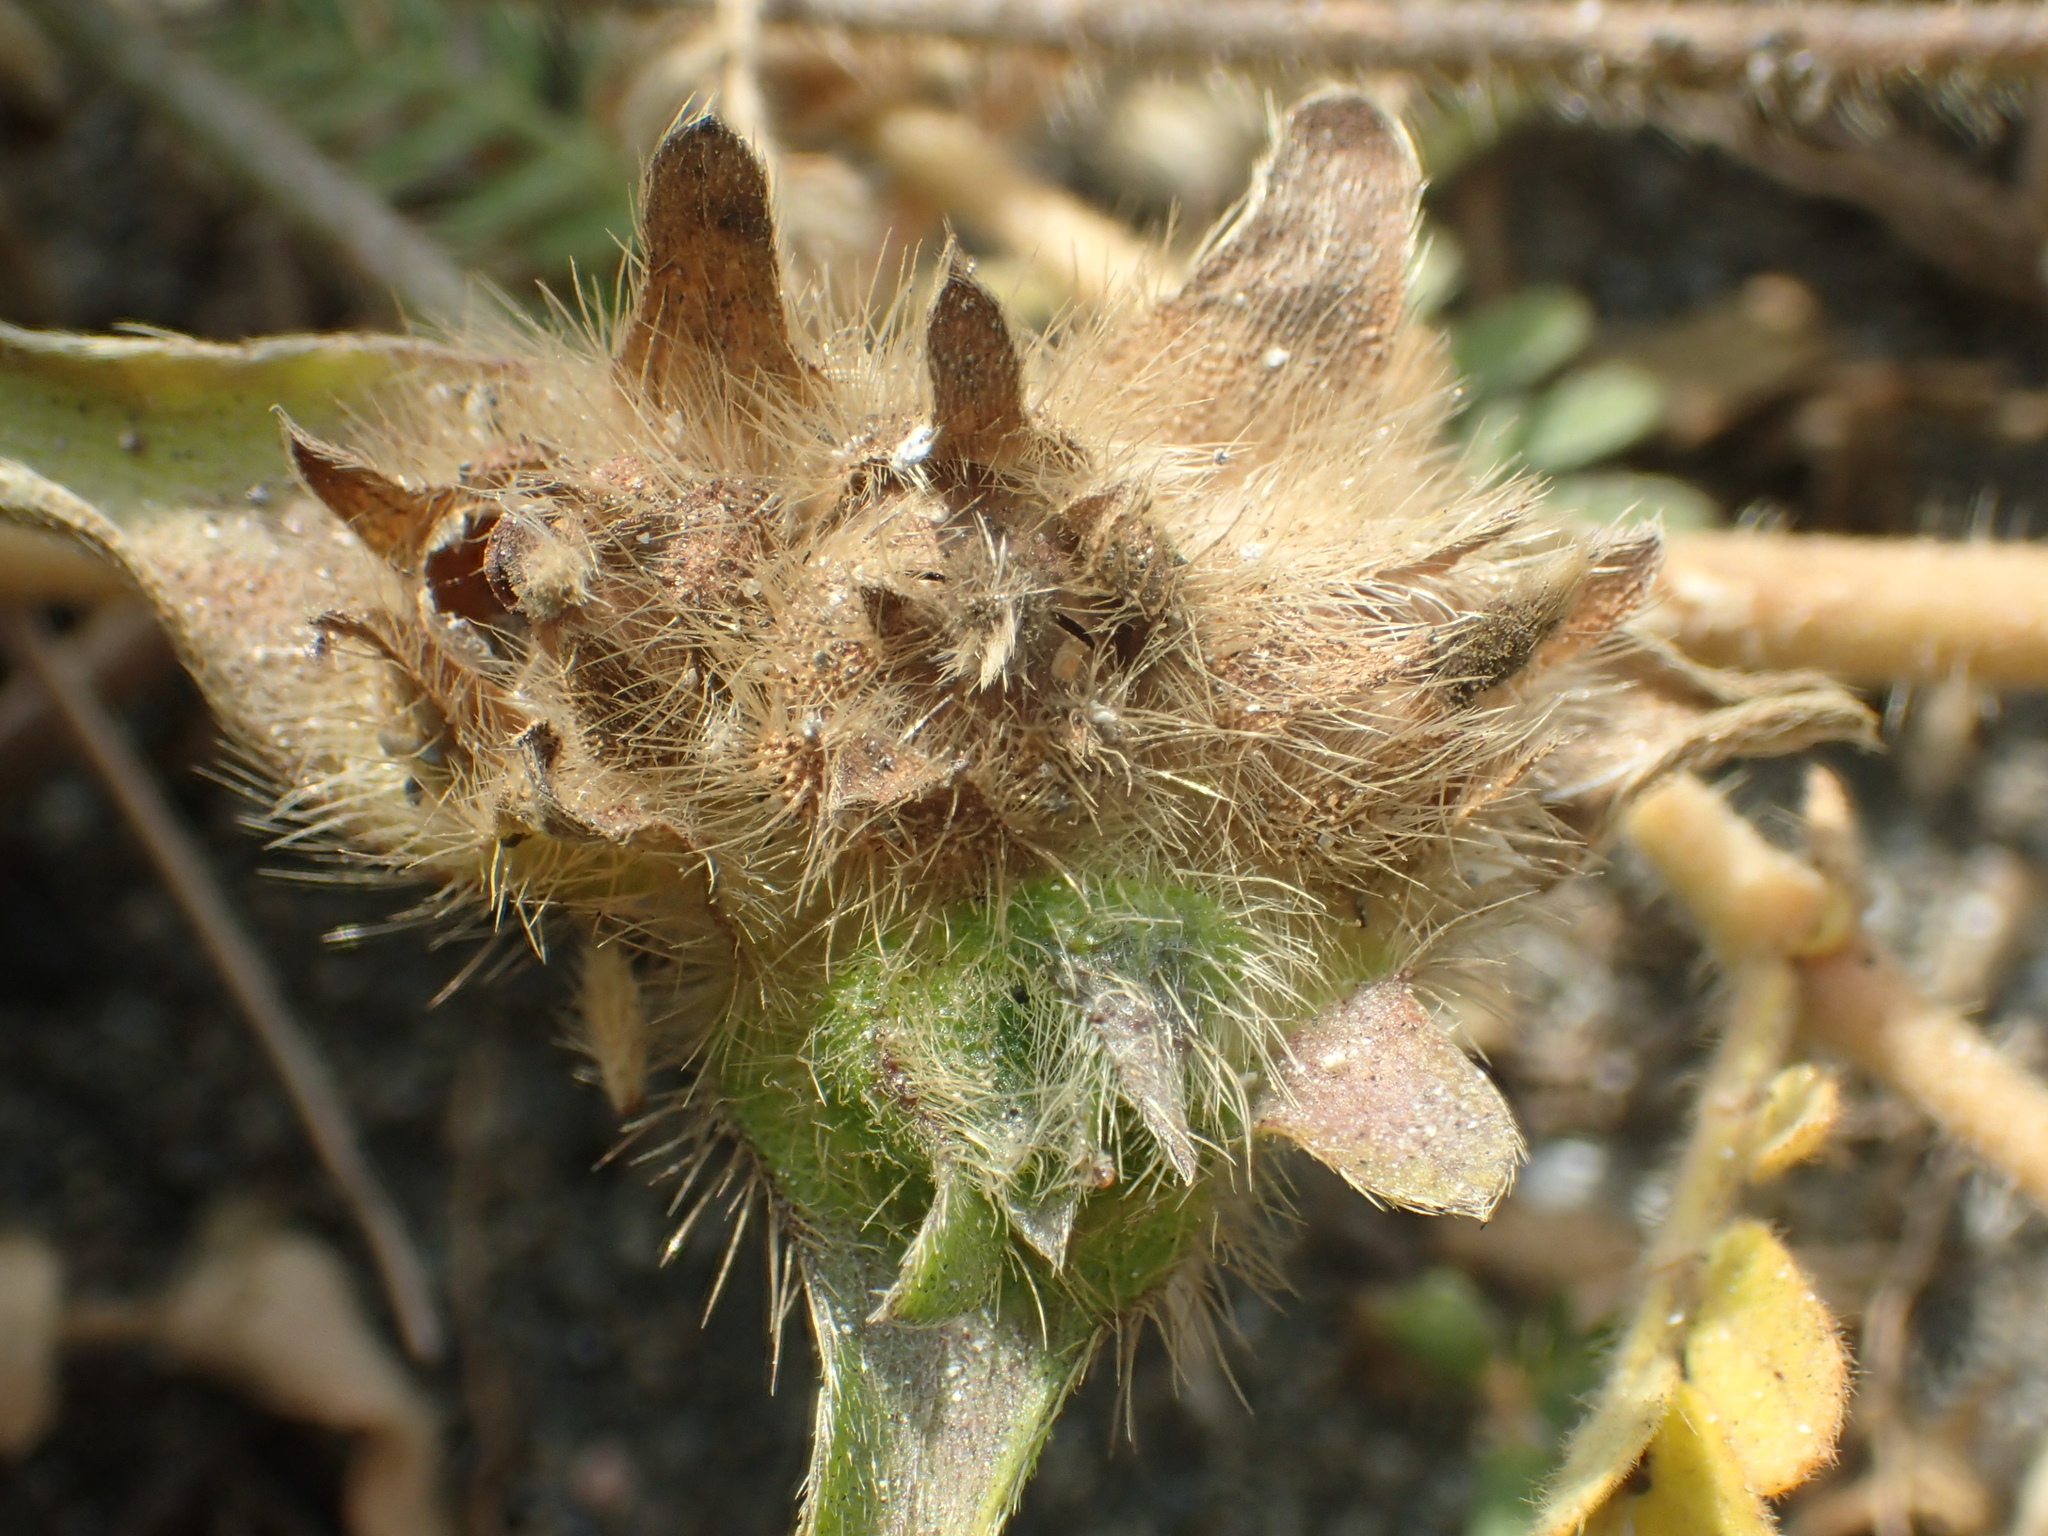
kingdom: Plantae
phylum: Tracheophyta
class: Magnoliopsida
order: Solanales
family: Convolvulaceae
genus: Ipomoea
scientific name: Ipomoea pes-tigridis
